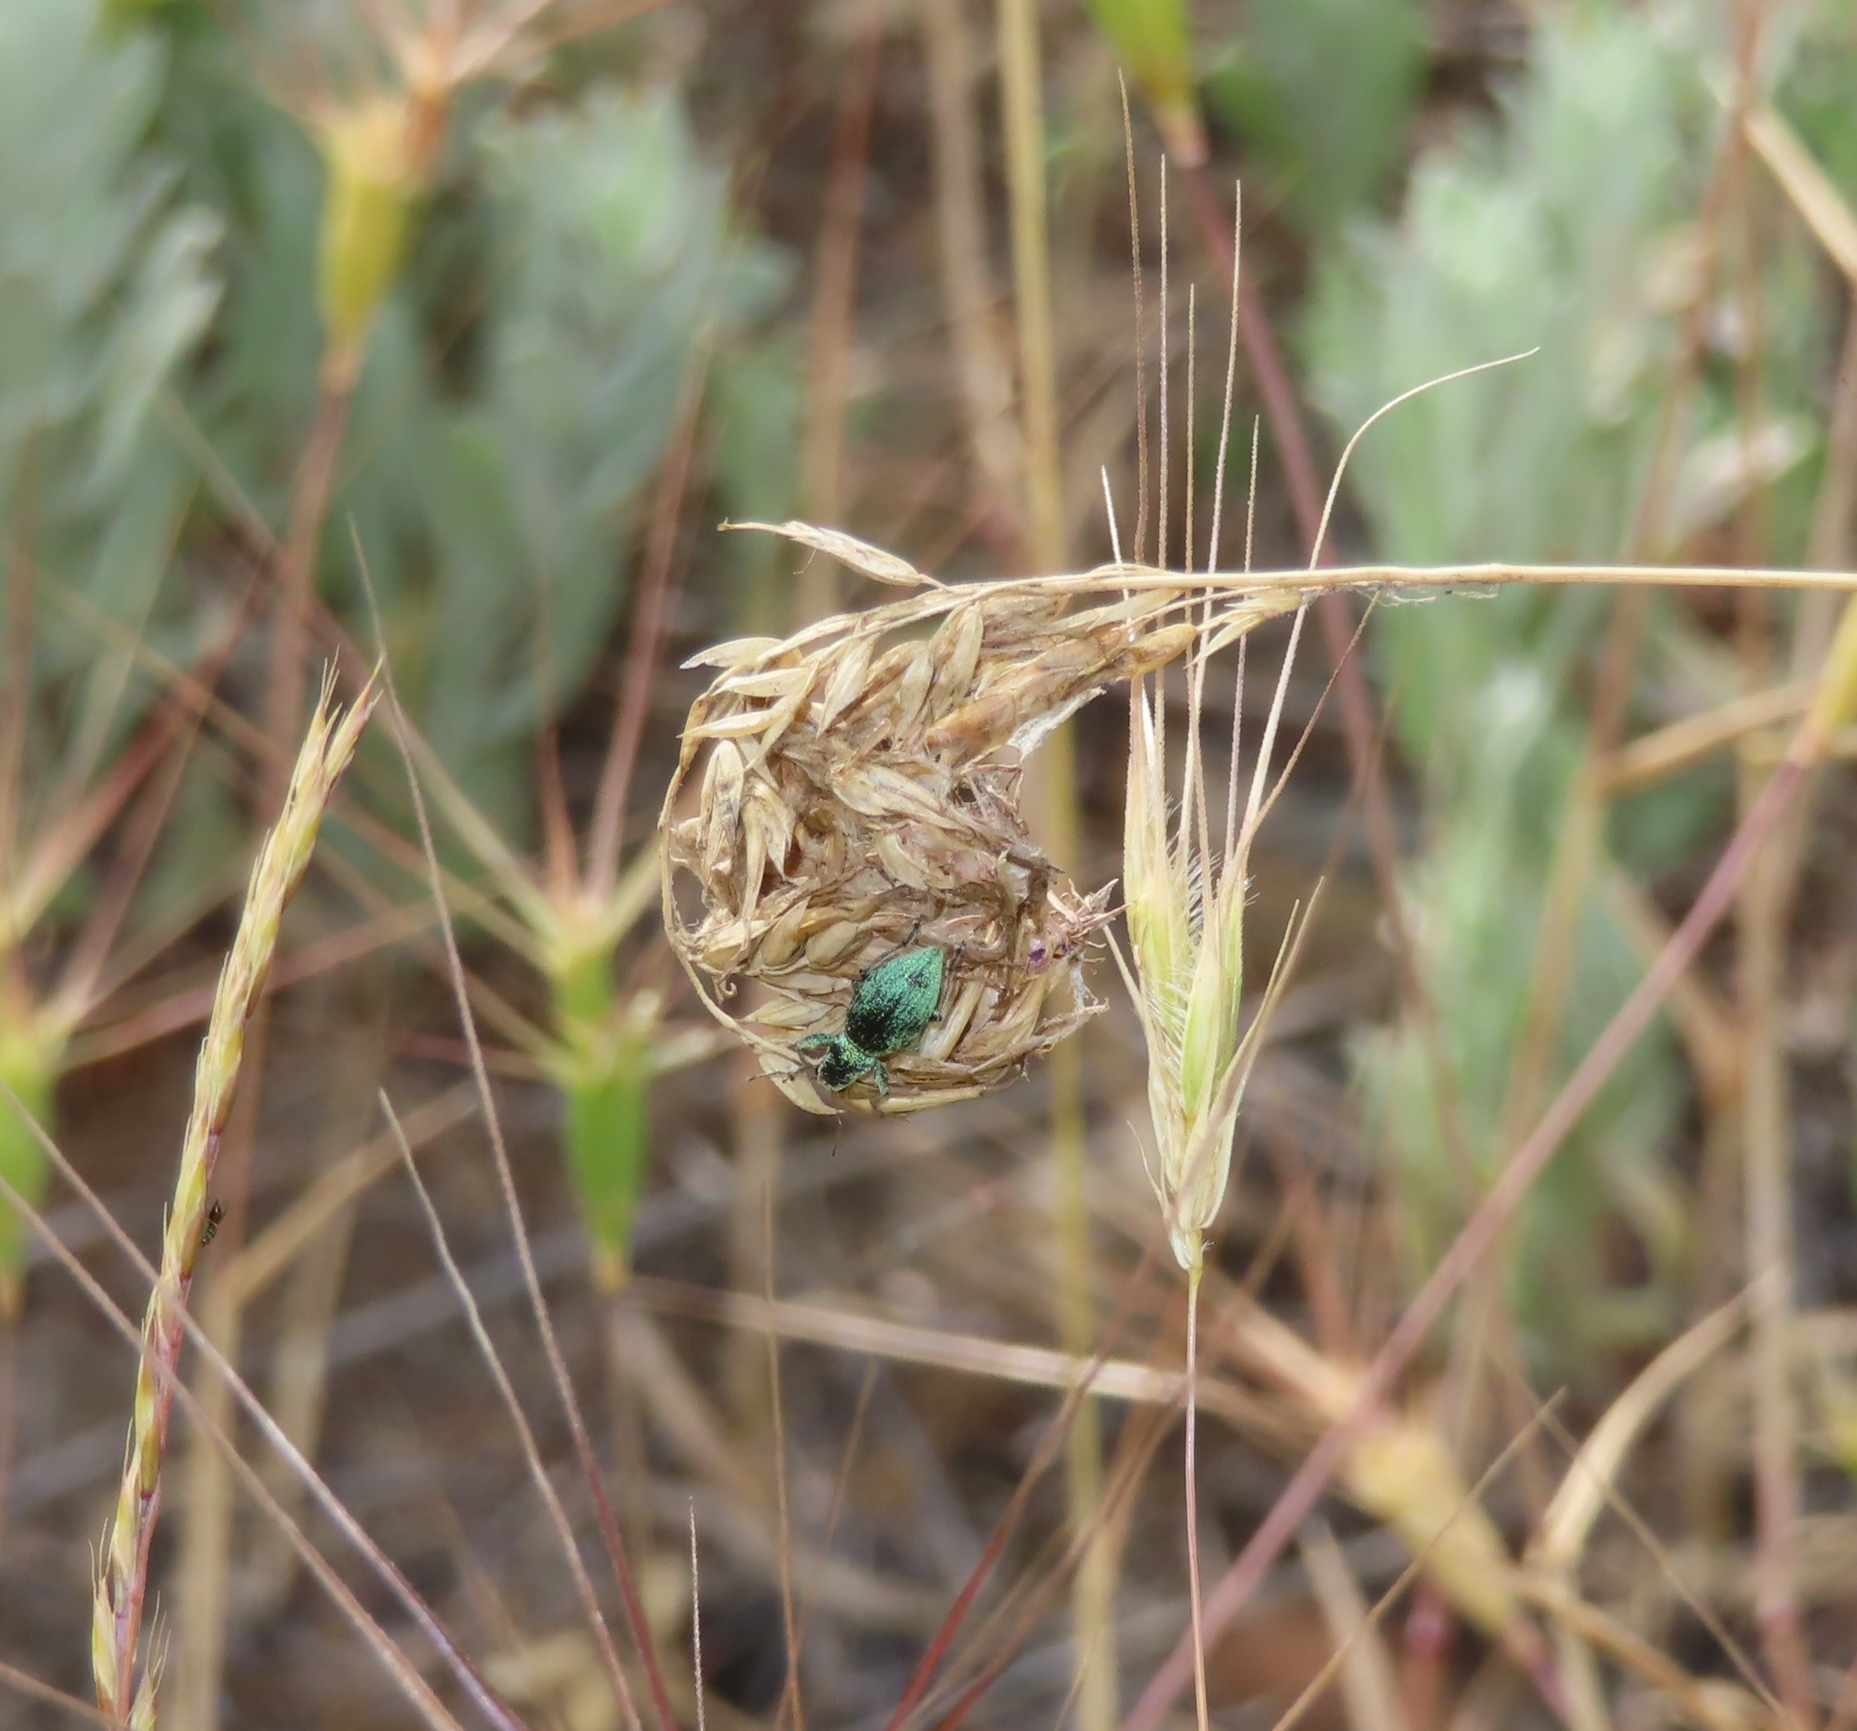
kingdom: Animalia
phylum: Arthropoda
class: Insecta
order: Coleoptera
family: Curculionidae
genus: Eusomus
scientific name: Eusomus ovulum
